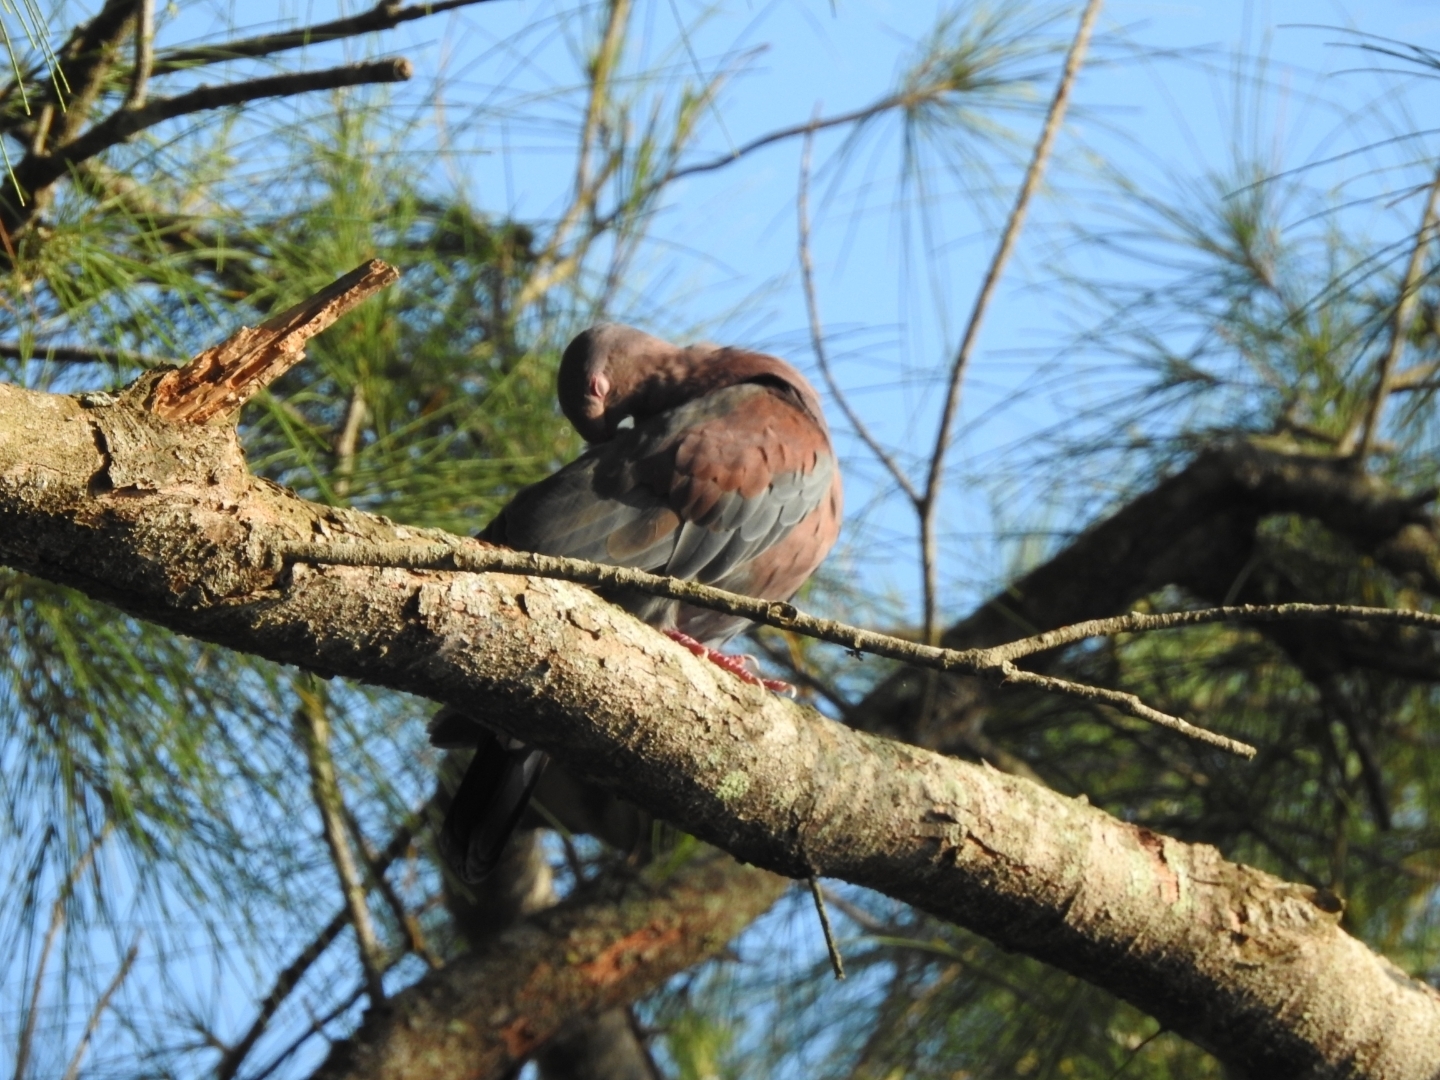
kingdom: Animalia
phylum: Chordata
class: Aves
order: Columbiformes
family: Columbidae
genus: Patagioenas
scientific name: Patagioenas flavirostris
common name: Red-billed pigeon
